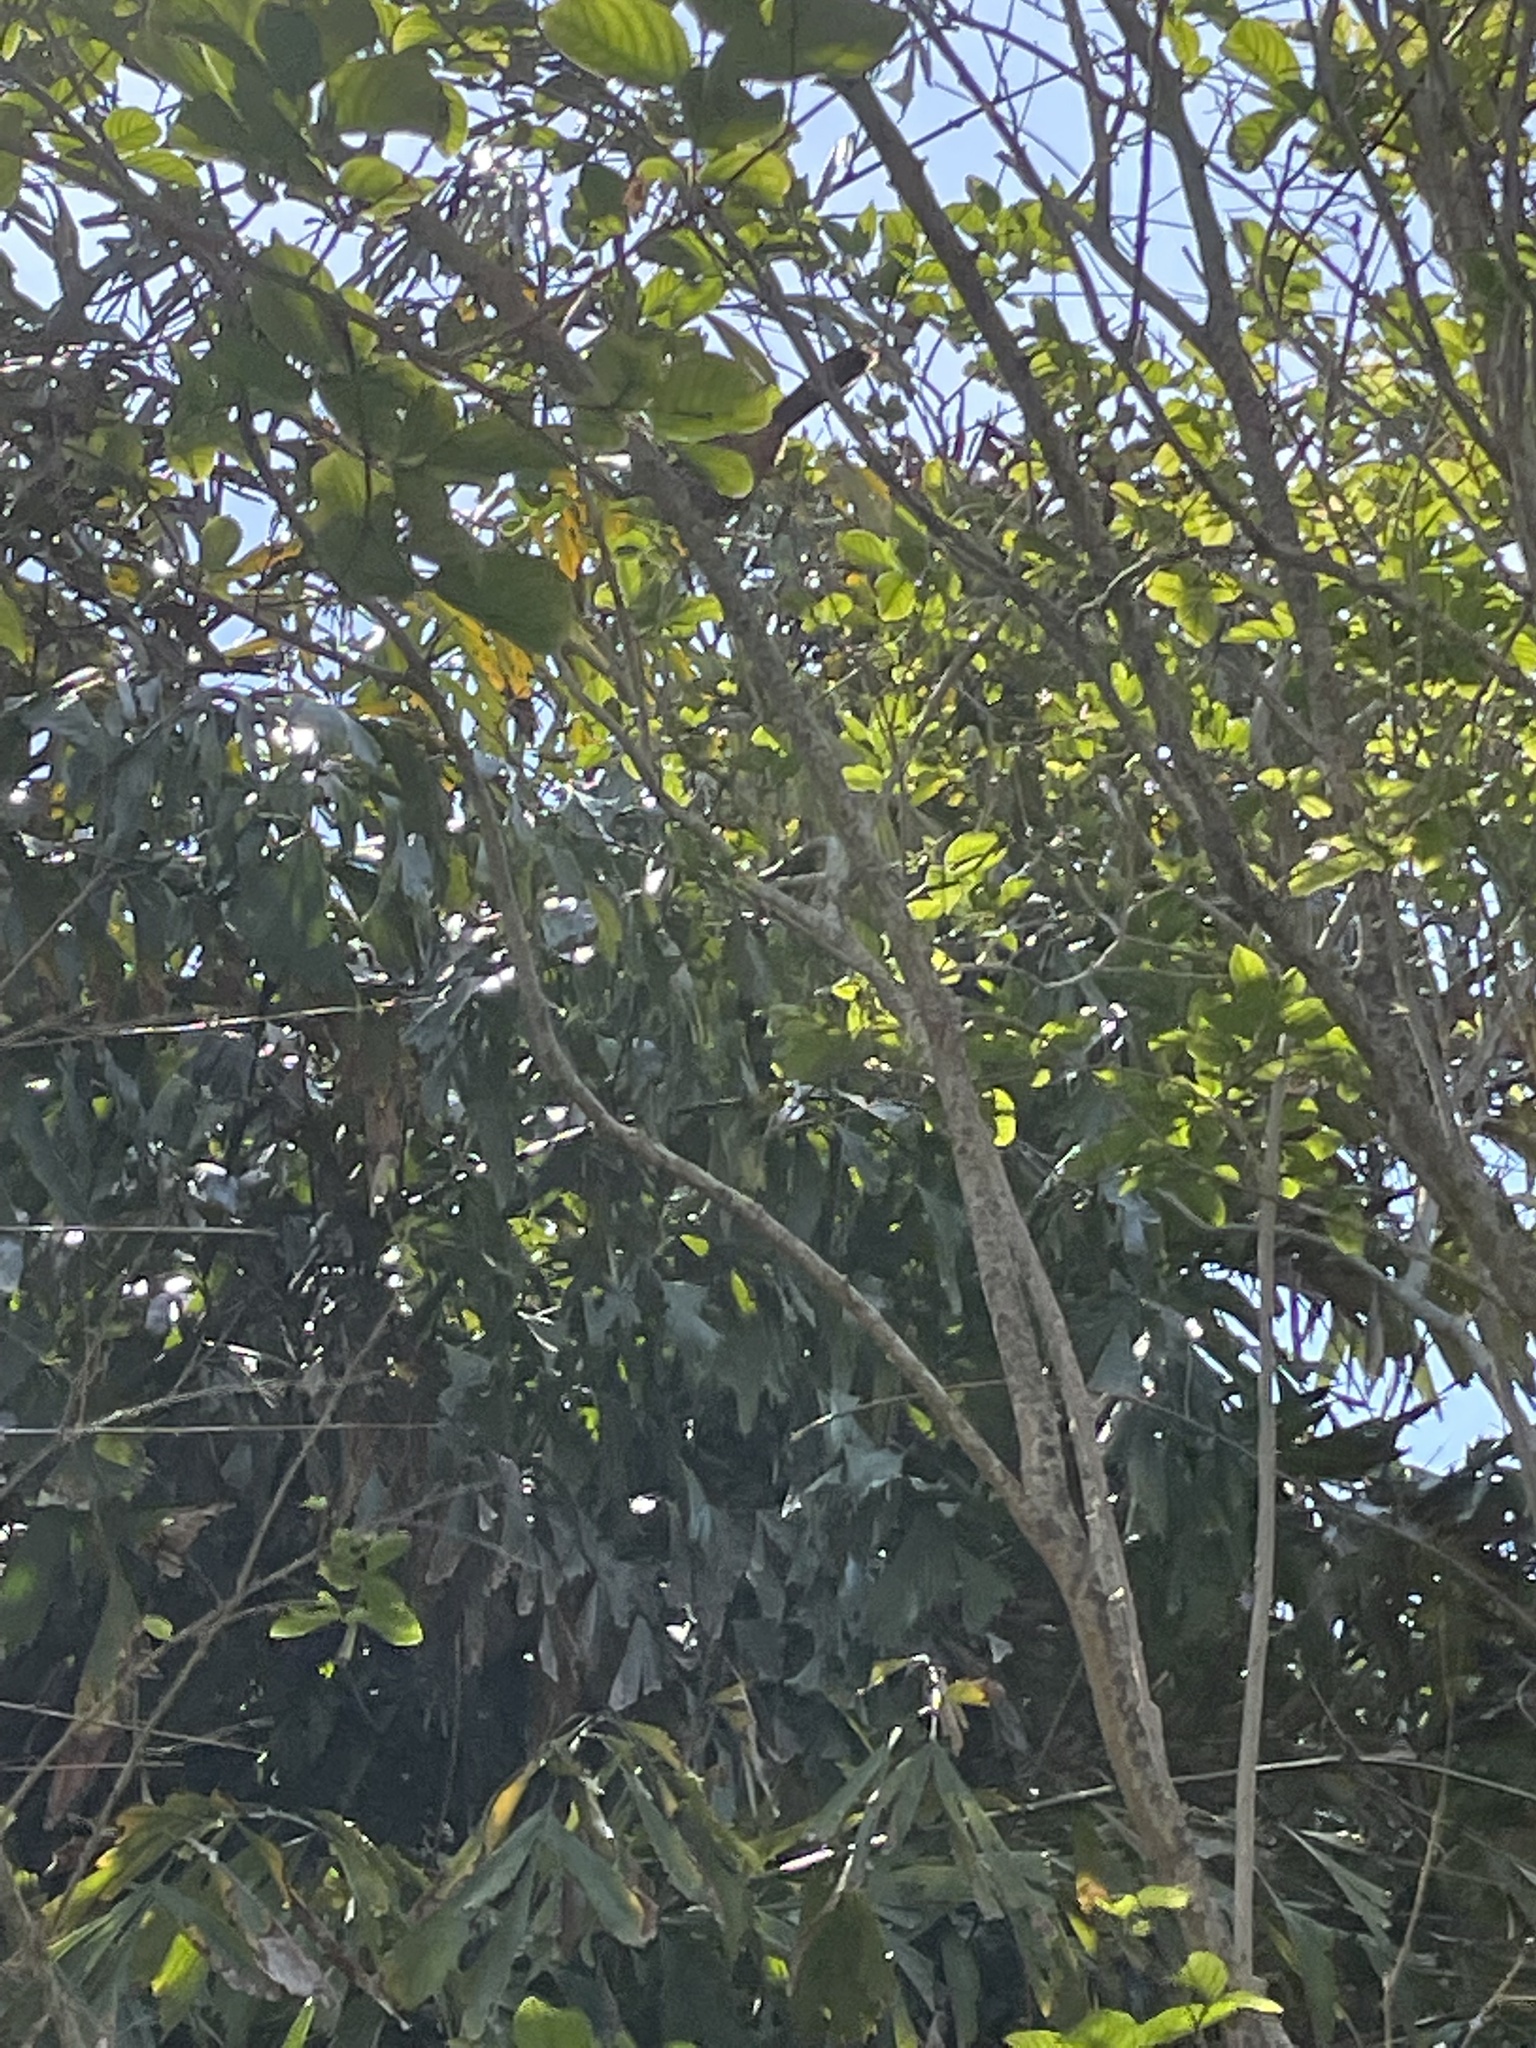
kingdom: Animalia
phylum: Chordata
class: Aves
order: Passeriformes
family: Mimidae
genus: Toxostoma
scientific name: Toxostoma rufum
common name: Brown thrasher
